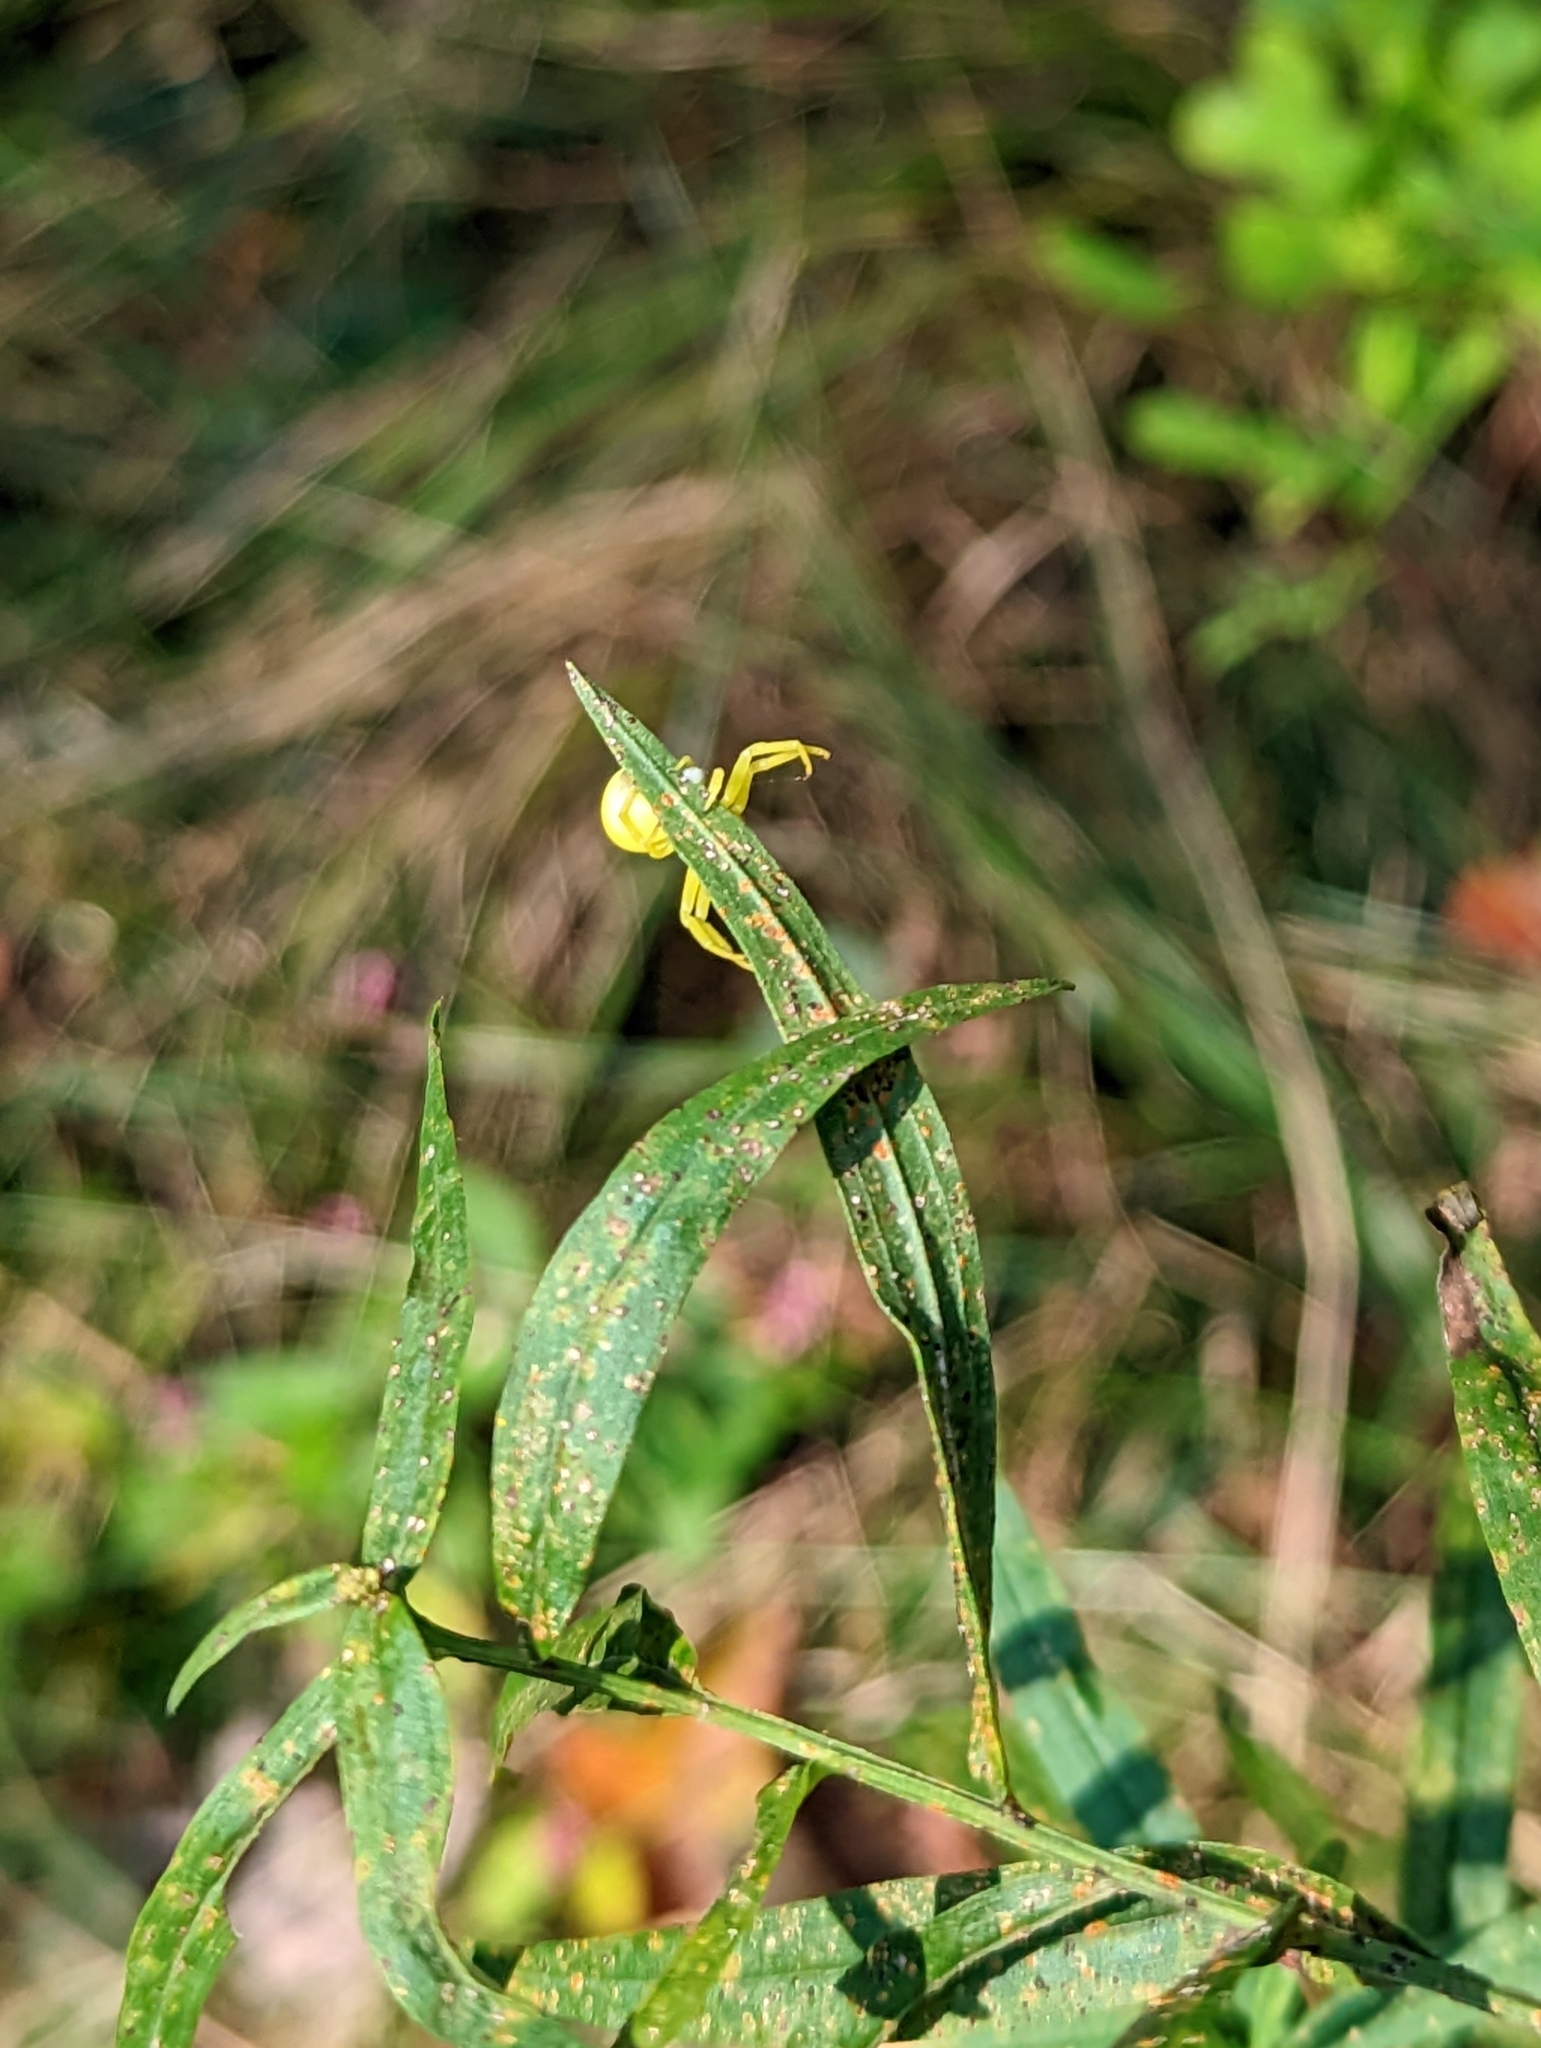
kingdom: Animalia
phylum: Arthropoda
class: Arachnida
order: Araneae
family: Thomisidae
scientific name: Thomisidae
